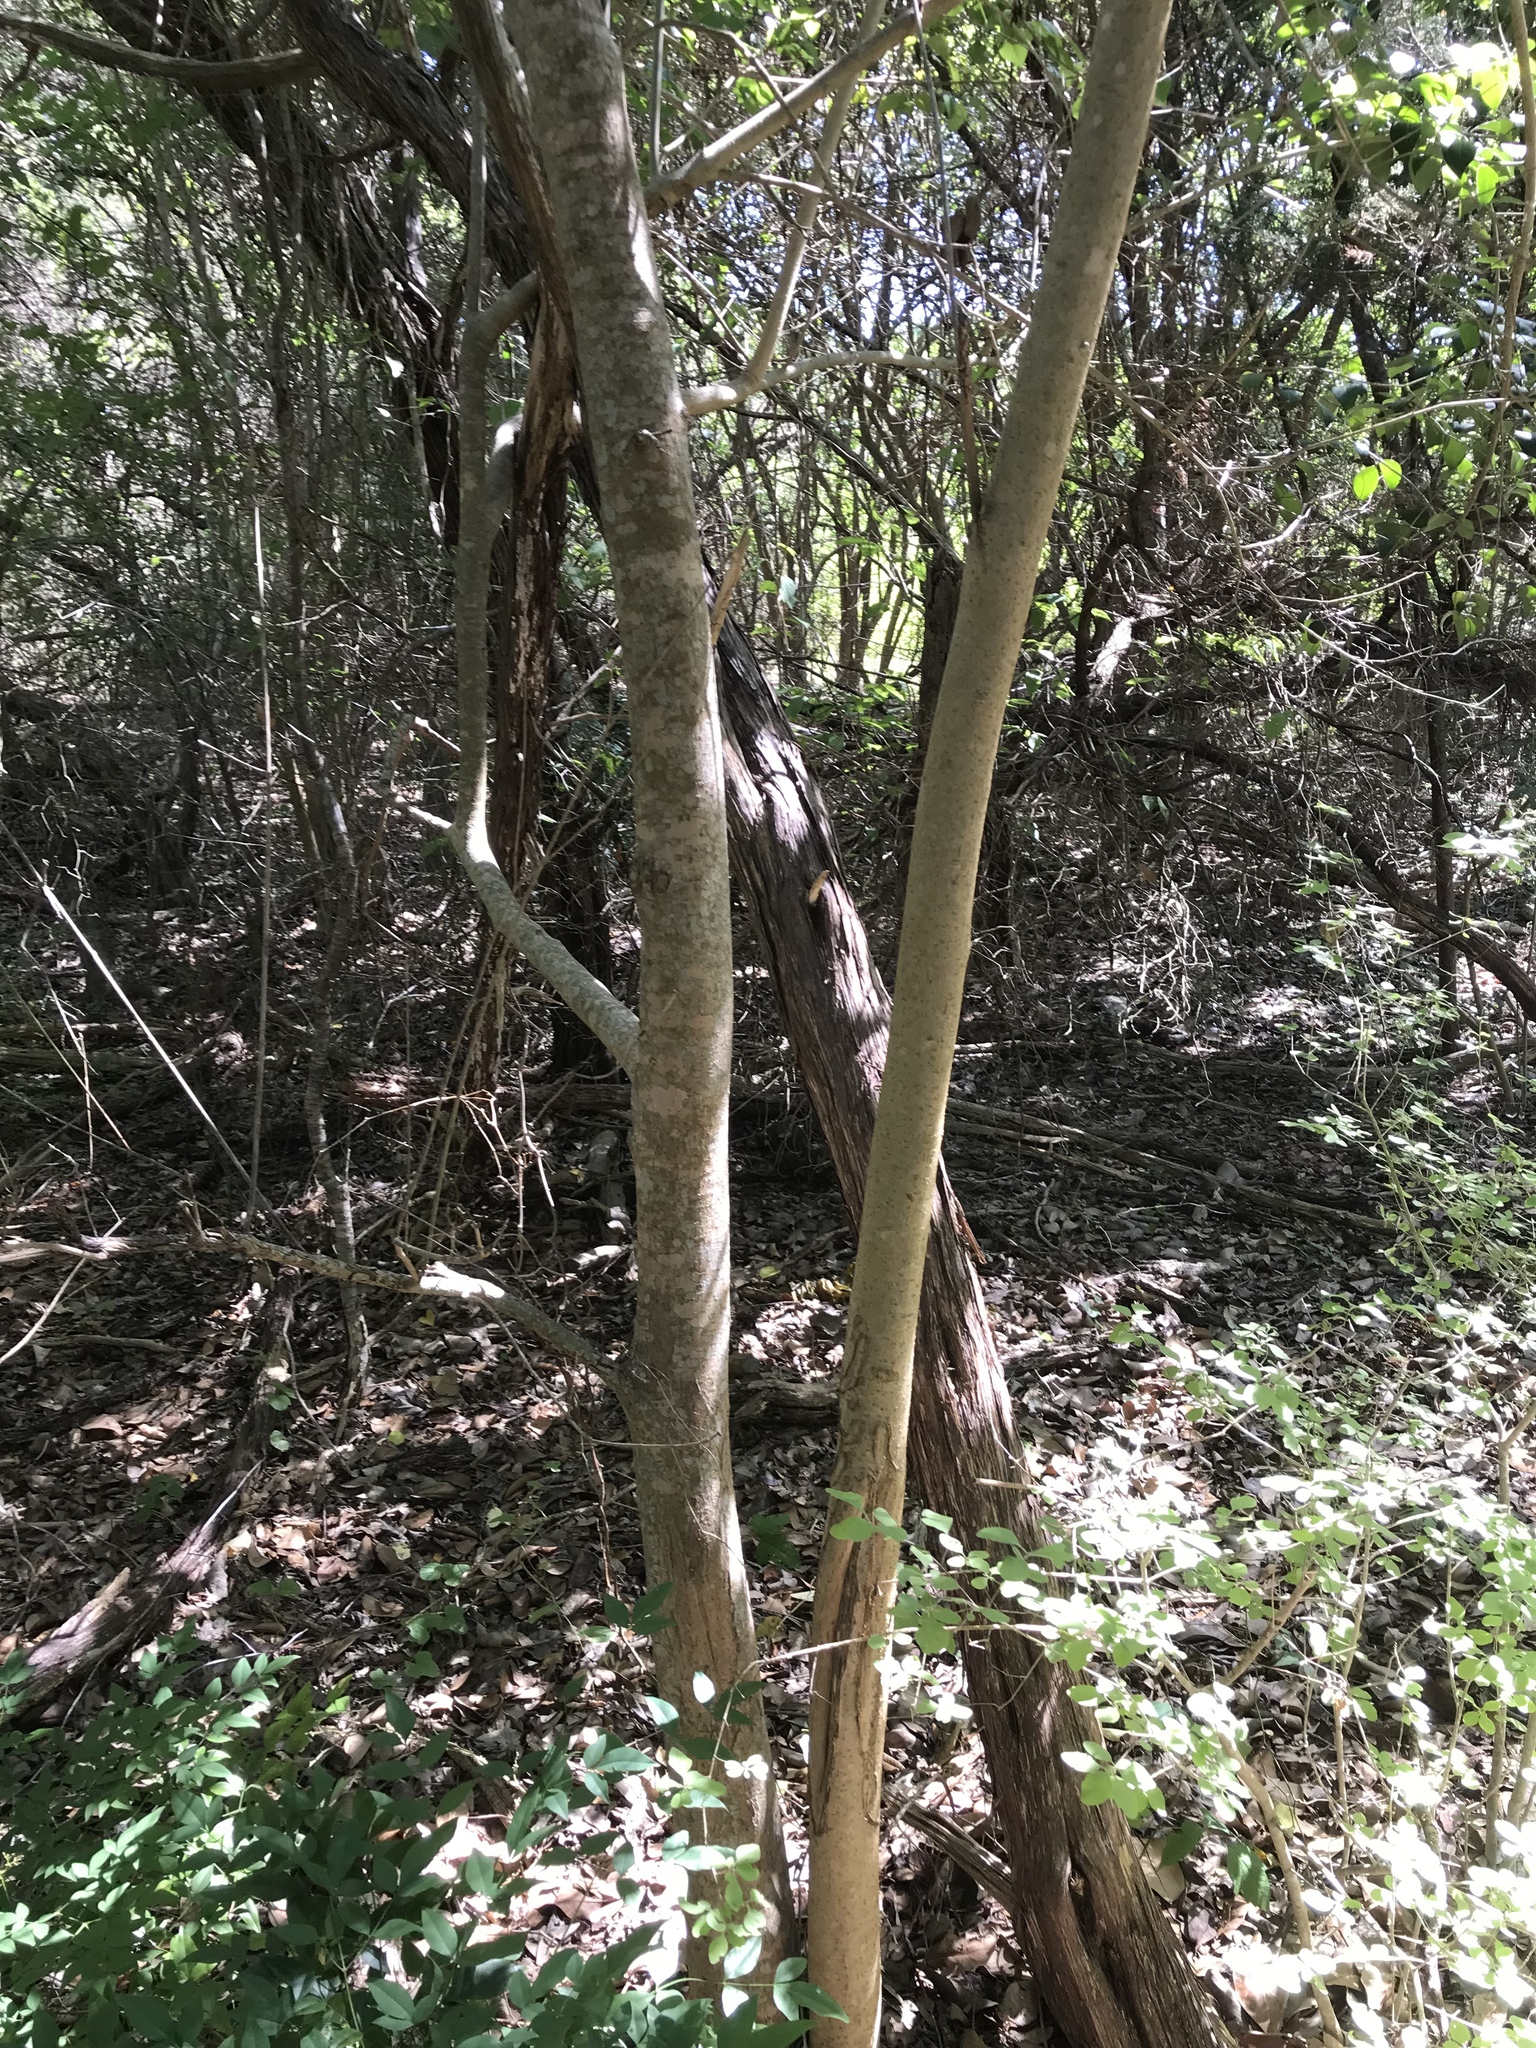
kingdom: Plantae
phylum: Tracheophyta
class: Magnoliopsida
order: Lamiales
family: Oleaceae
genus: Ligustrum
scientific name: Ligustrum lucidum
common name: Glossy privet
